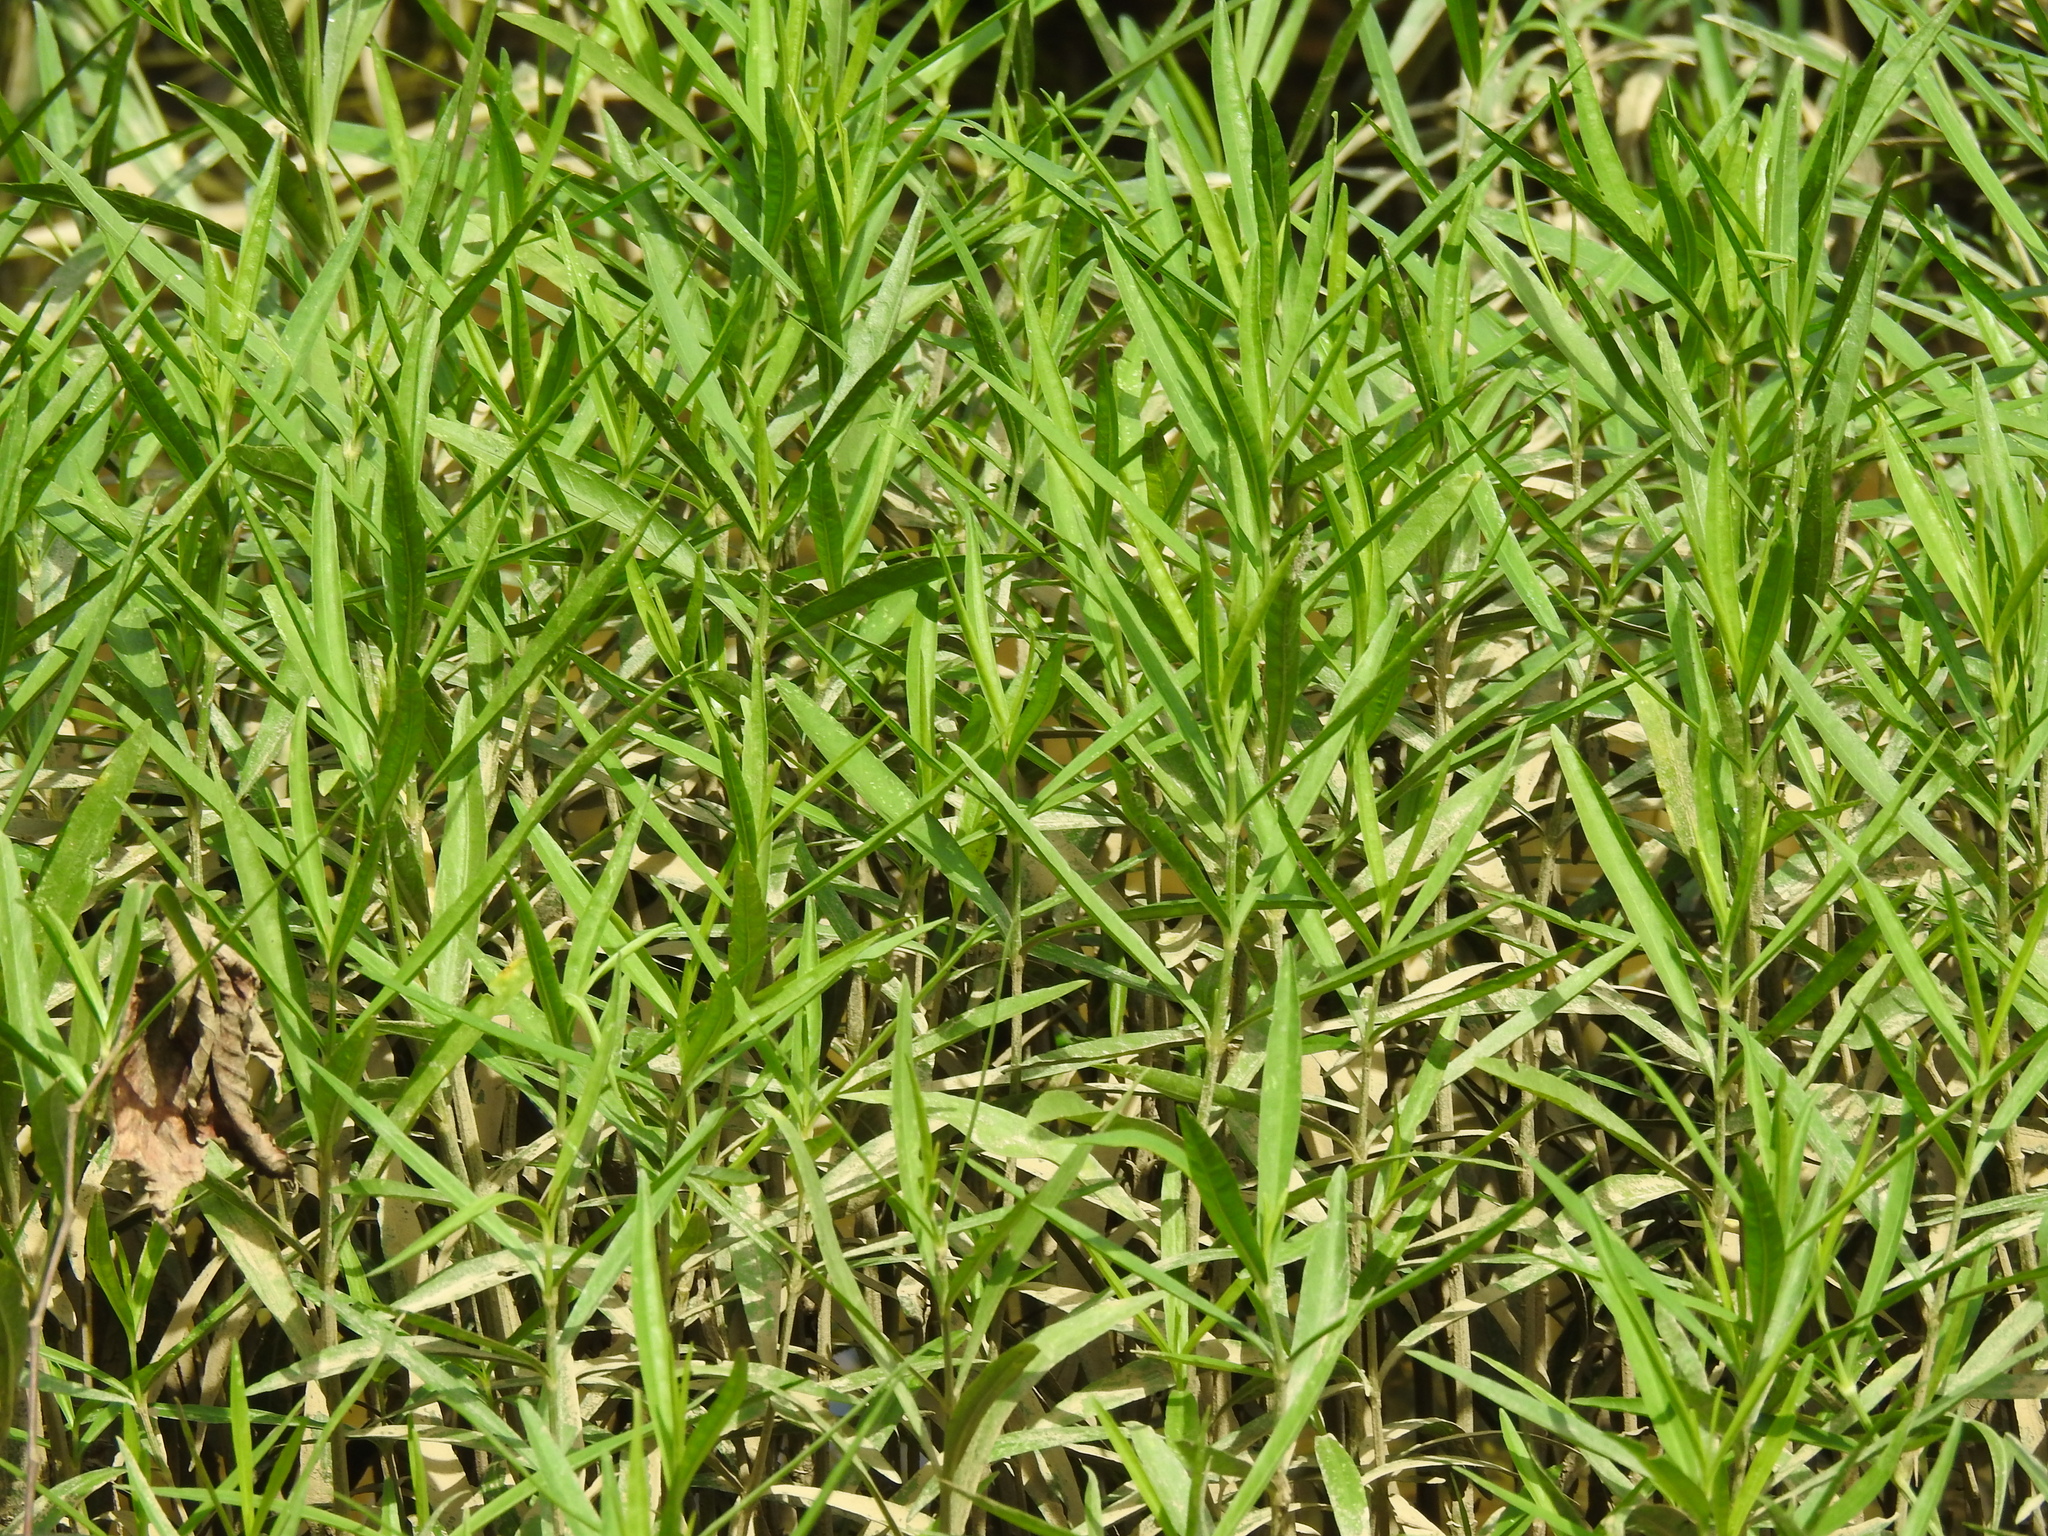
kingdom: Plantae
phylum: Tracheophyta
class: Magnoliopsida
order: Lamiales
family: Acanthaceae
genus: Dianthera
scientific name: Dianthera americana
